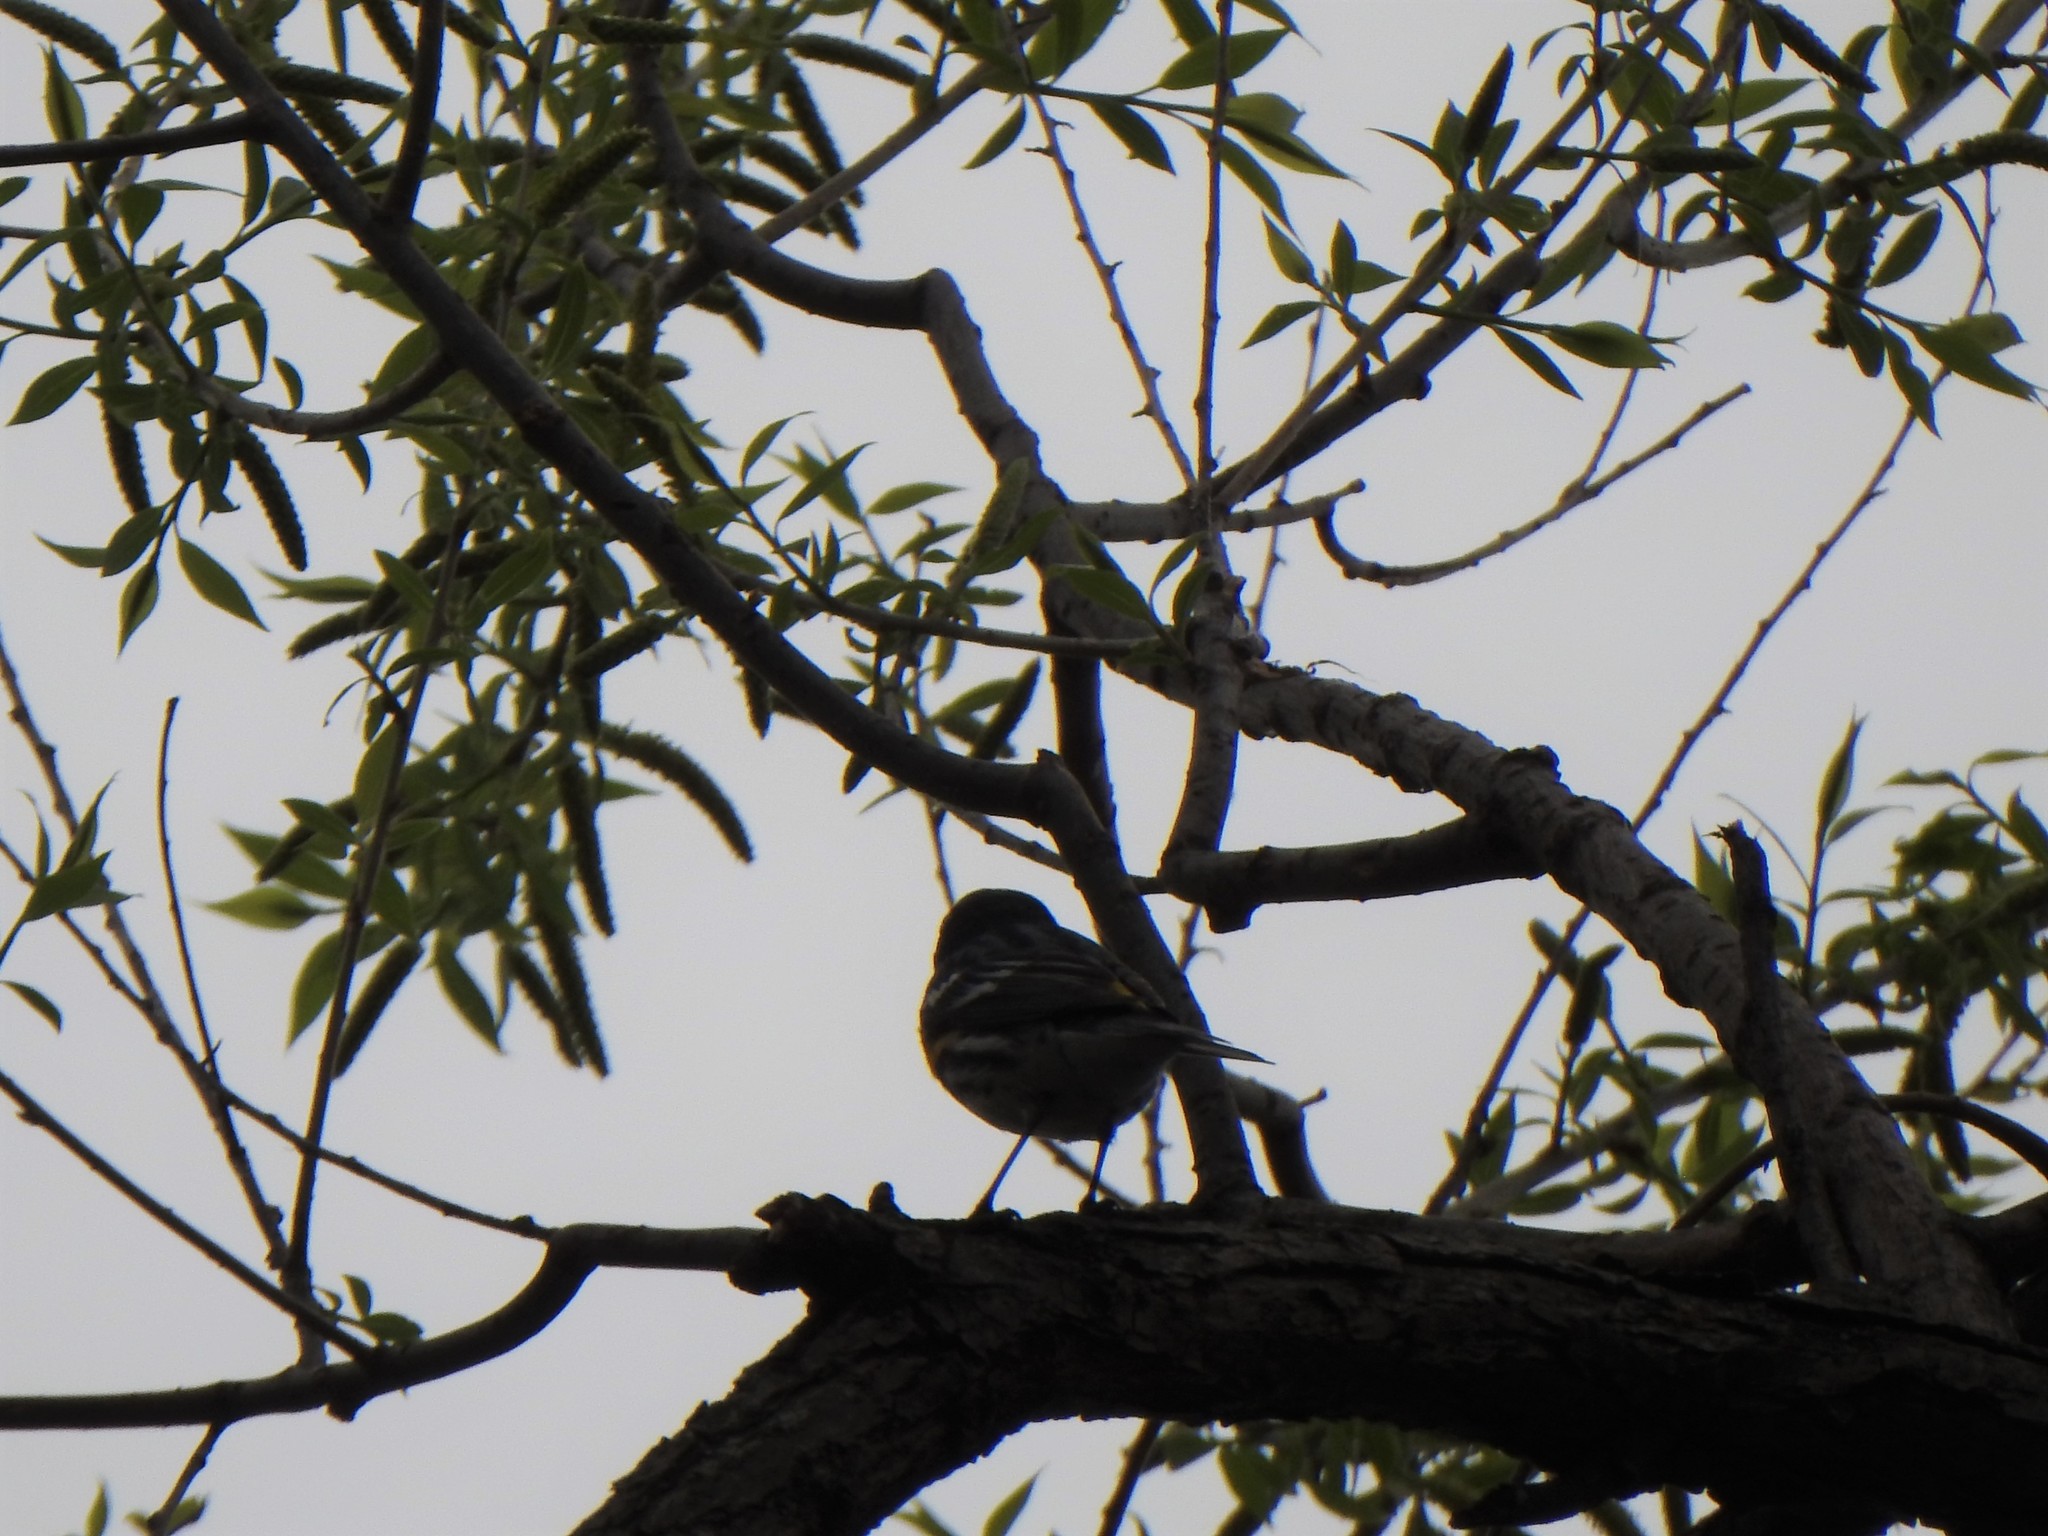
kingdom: Animalia
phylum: Chordata
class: Aves
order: Passeriformes
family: Parulidae
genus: Setophaga
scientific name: Setophaga coronata
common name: Myrtle warbler
